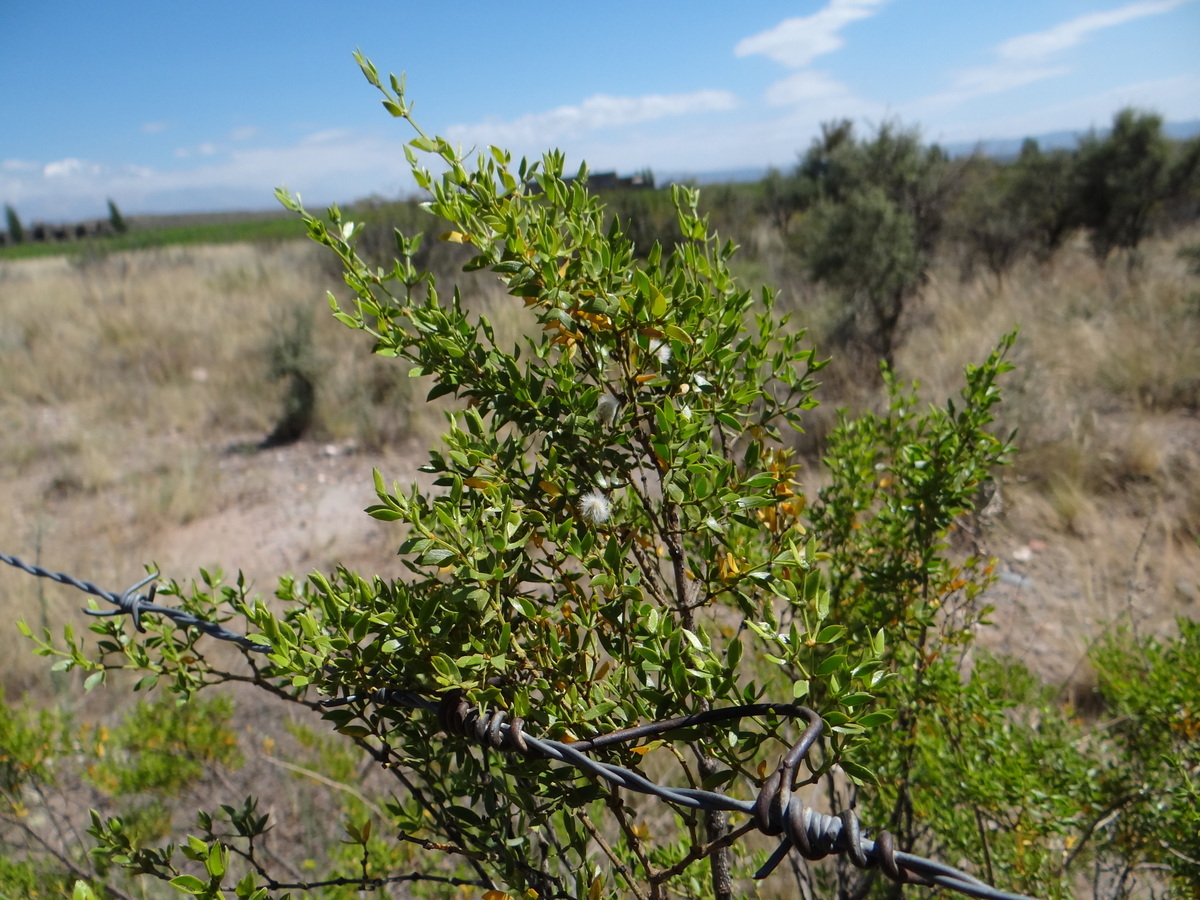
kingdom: Plantae
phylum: Tracheophyta
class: Magnoliopsida
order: Zygophyllales
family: Zygophyllaceae
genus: Larrea
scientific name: Larrea divaricata
